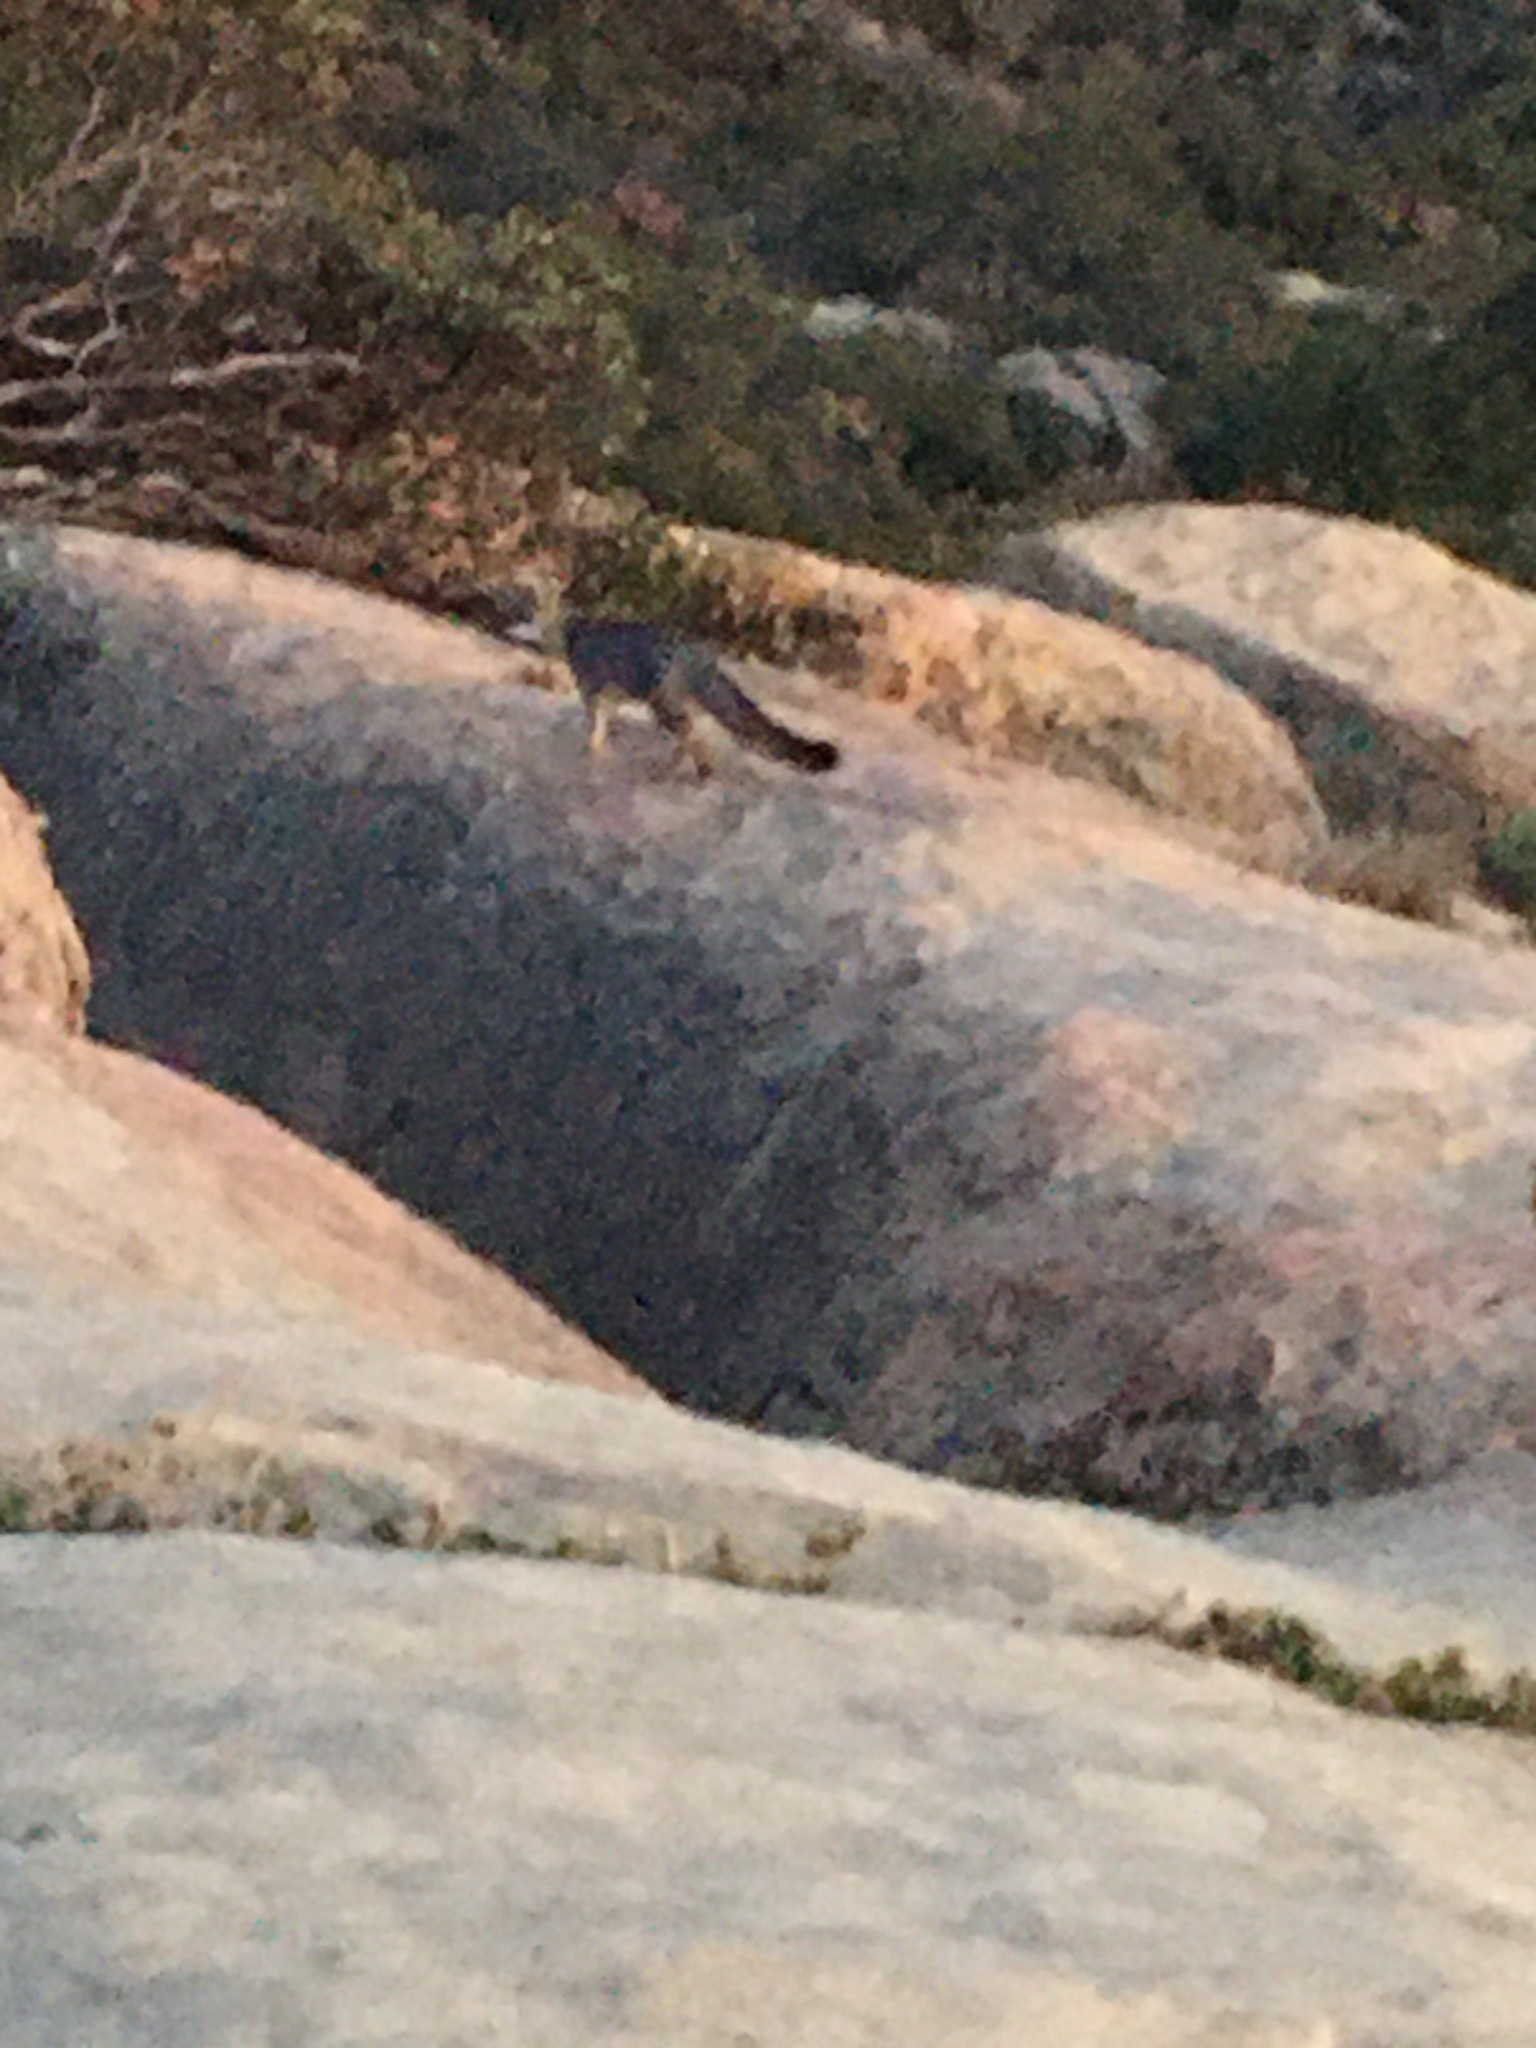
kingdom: Animalia
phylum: Chordata
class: Mammalia
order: Carnivora
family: Canidae
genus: Urocyon
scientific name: Urocyon cinereoargenteus
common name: Gray fox
